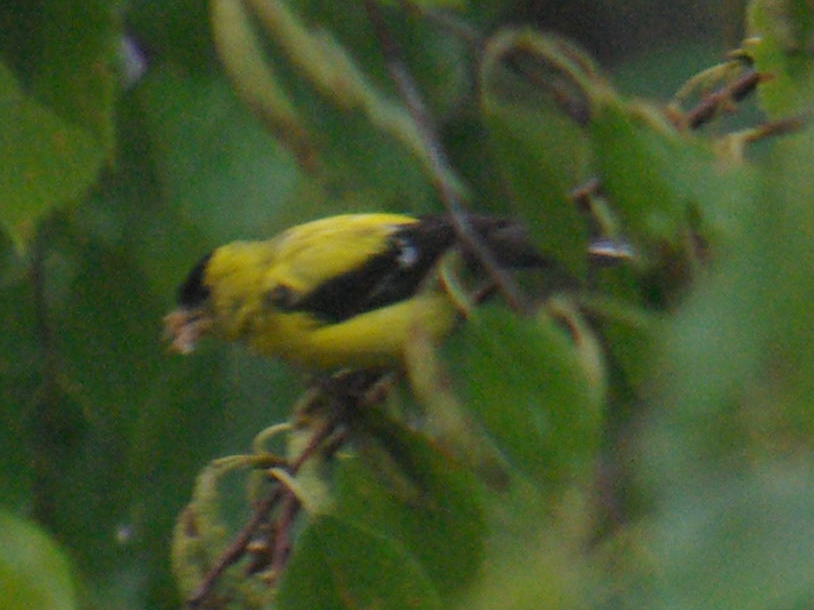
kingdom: Animalia
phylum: Chordata
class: Aves
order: Passeriformes
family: Fringillidae
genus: Spinus
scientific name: Spinus tristis
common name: American goldfinch
